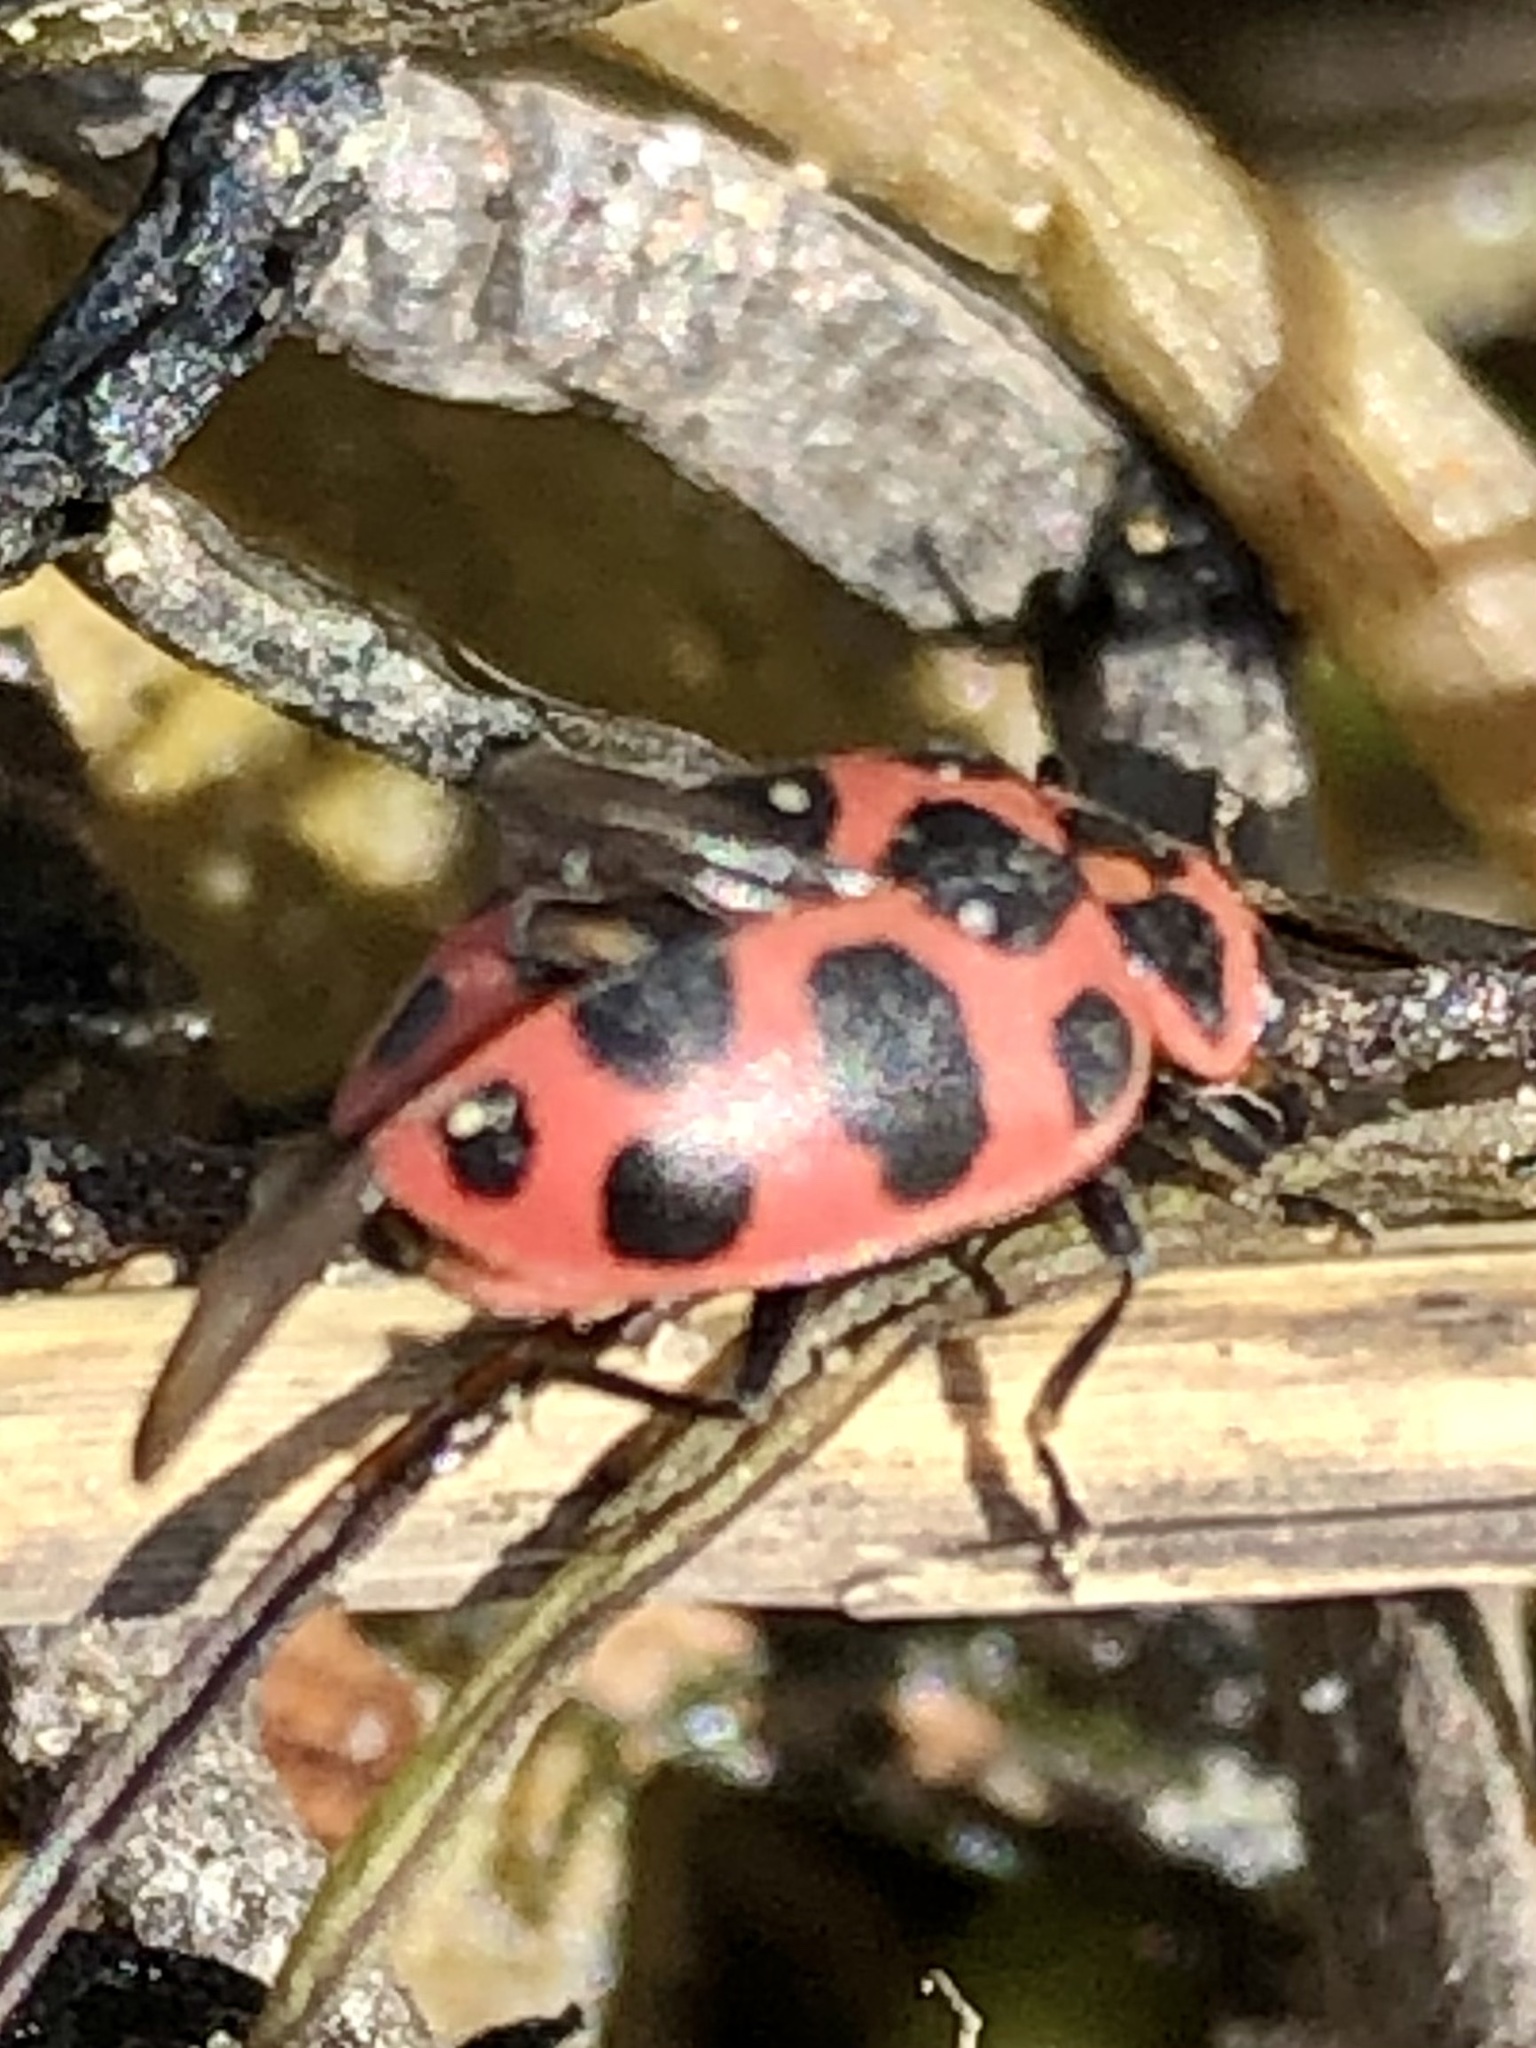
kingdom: Animalia
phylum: Arthropoda
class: Insecta
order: Coleoptera
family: Coccinellidae
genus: Coleomegilla
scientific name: Coleomegilla maculata
